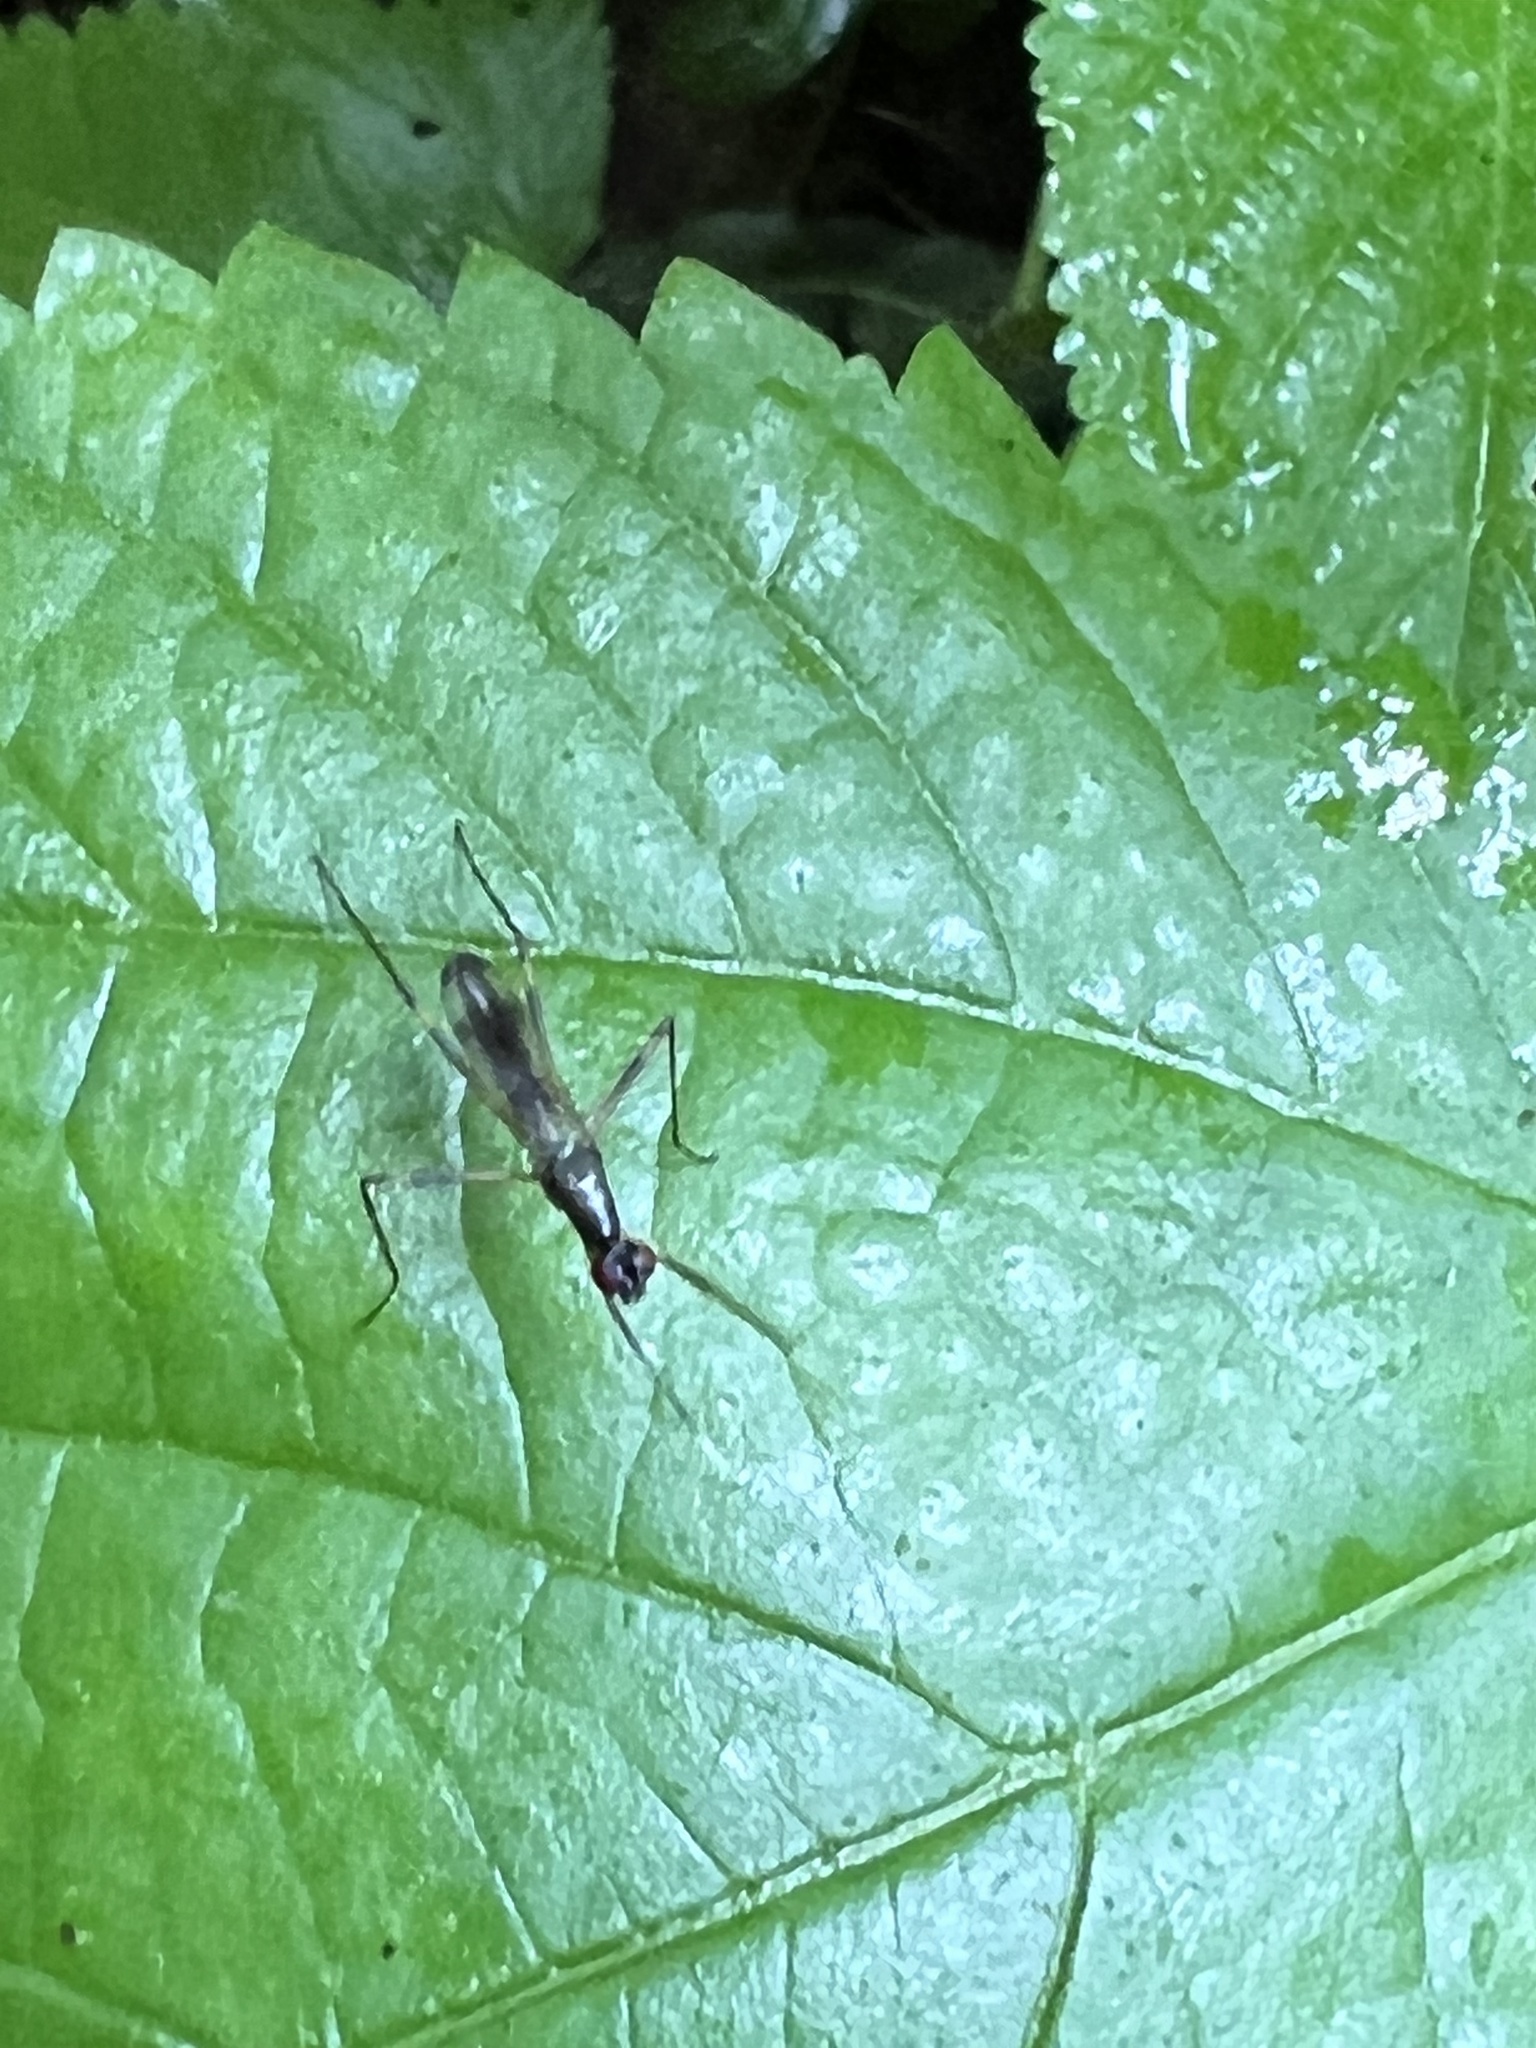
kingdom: Animalia
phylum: Arthropoda
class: Insecta
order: Diptera
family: Micropezidae
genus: Rainieria
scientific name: Rainieria antennaepes
